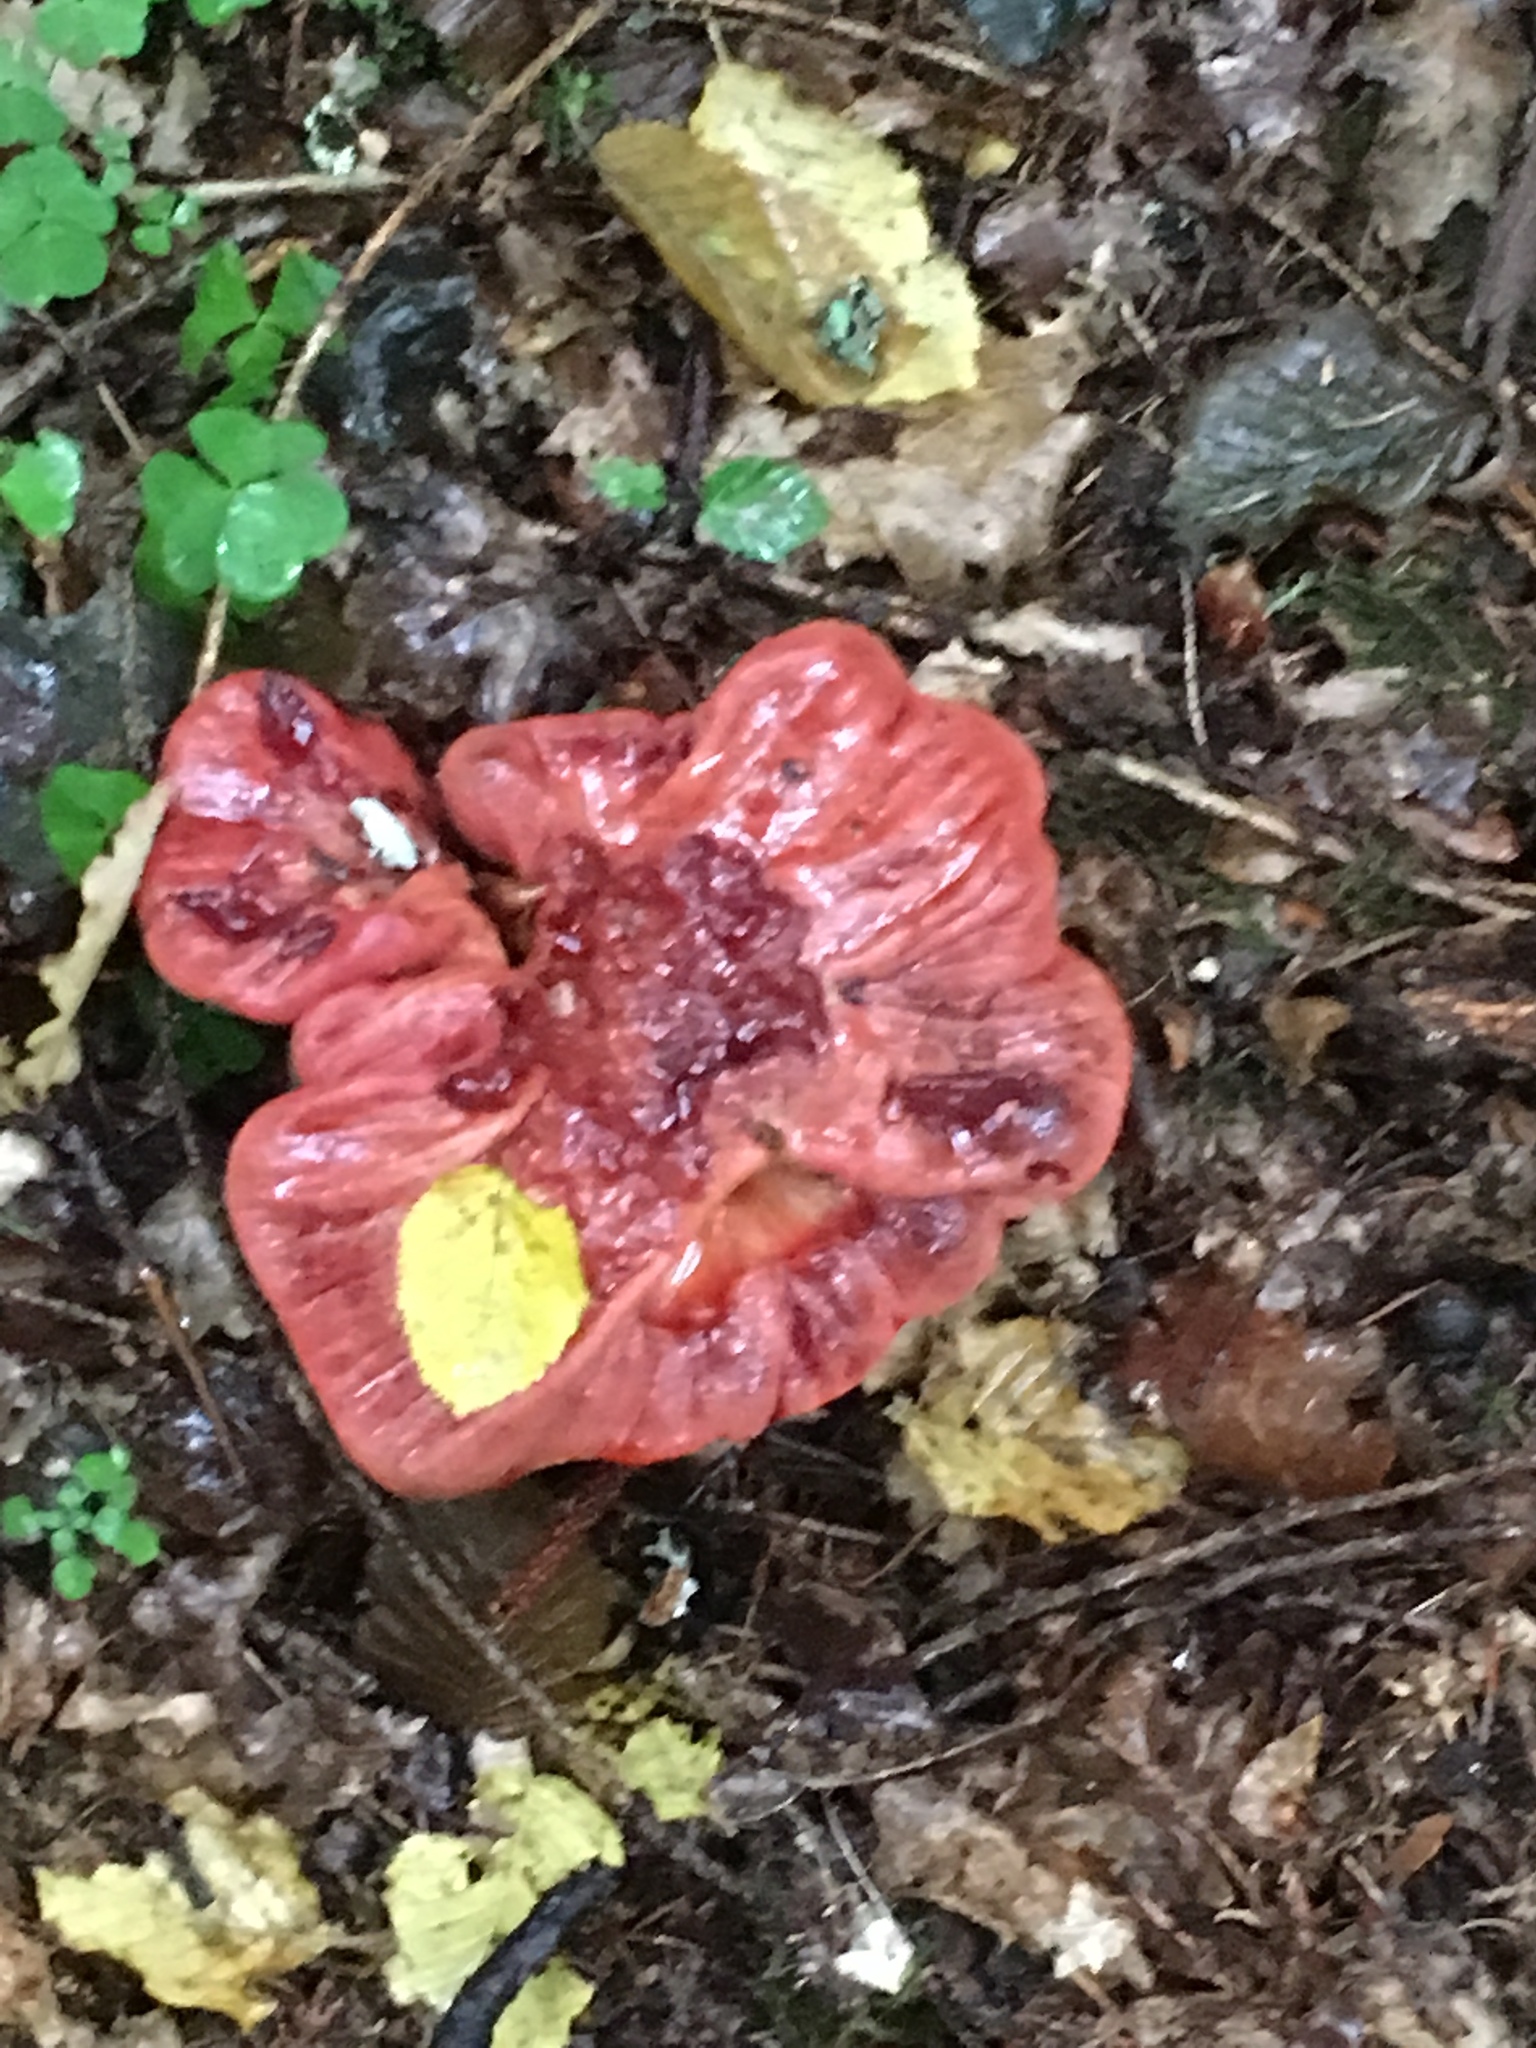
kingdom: Fungi
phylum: Basidiomycota
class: Agaricomycetes
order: Agaricales
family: Fistulinaceae
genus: Fistulina
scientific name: Fistulina hepatica
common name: Beef-steak fungus
